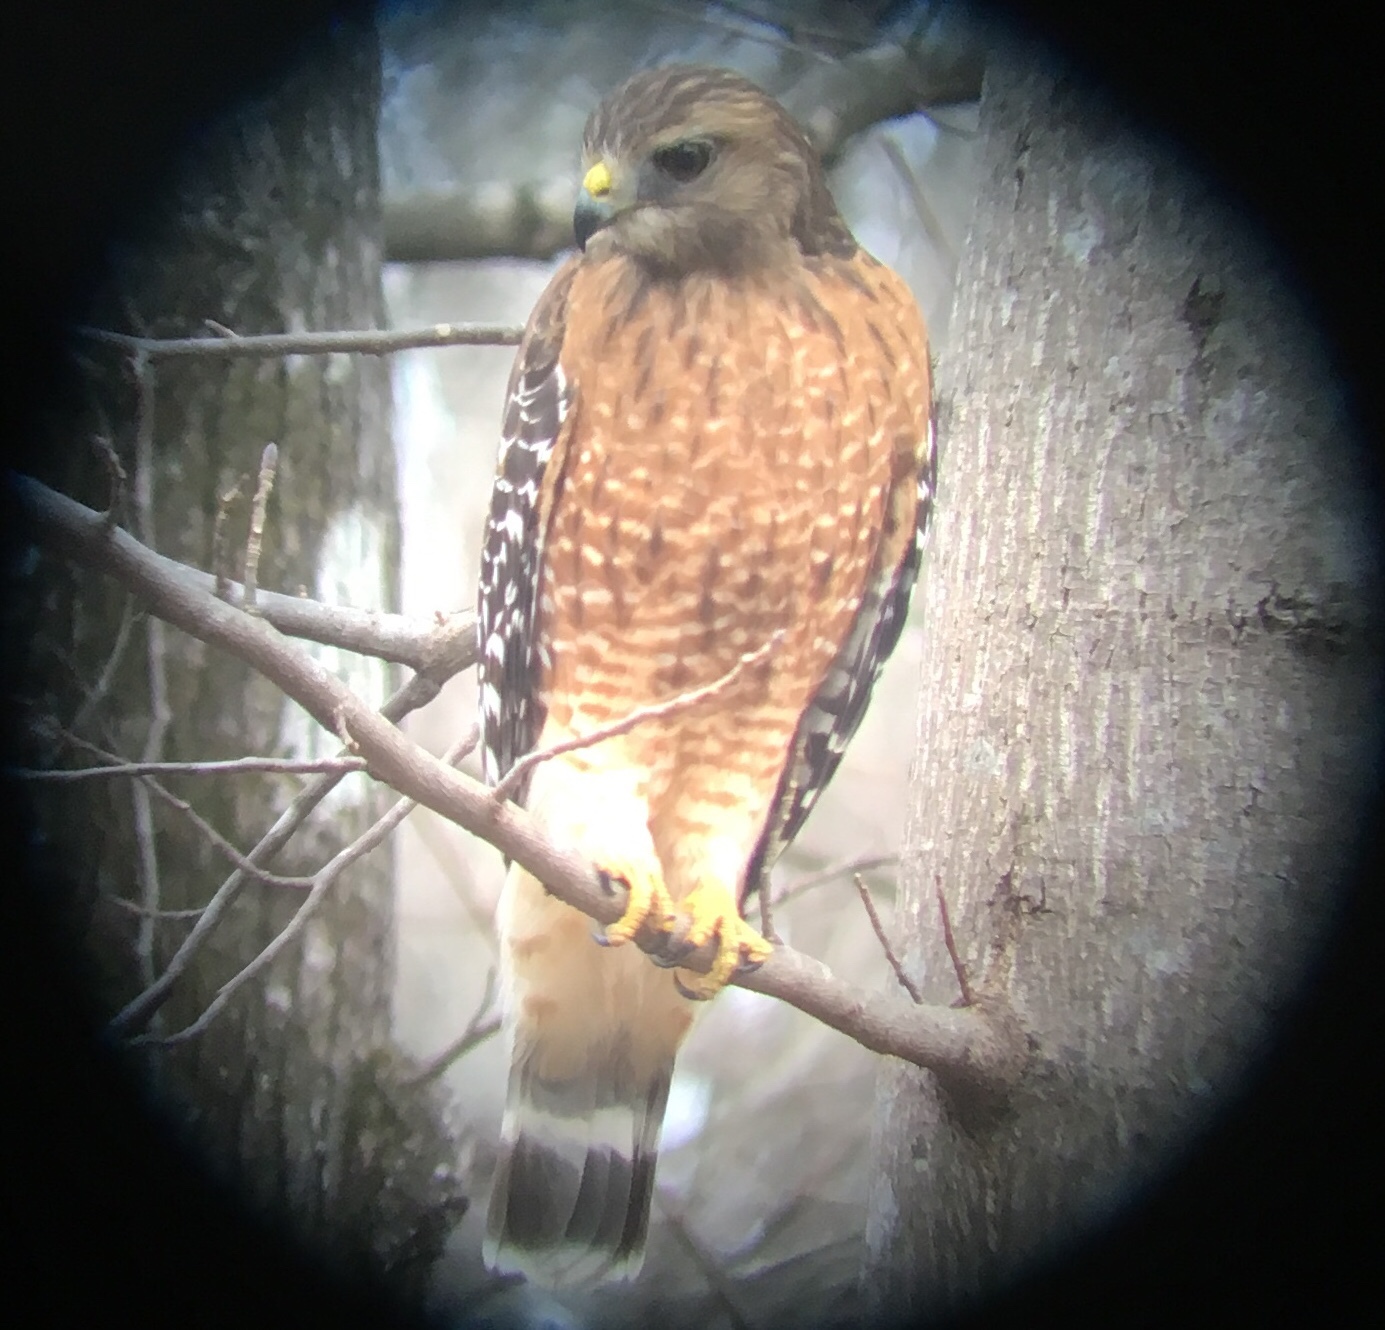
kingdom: Animalia
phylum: Chordata
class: Aves
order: Accipitriformes
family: Accipitridae
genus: Buteo
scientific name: Buteo lineatus
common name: Red-shouldered hawk
